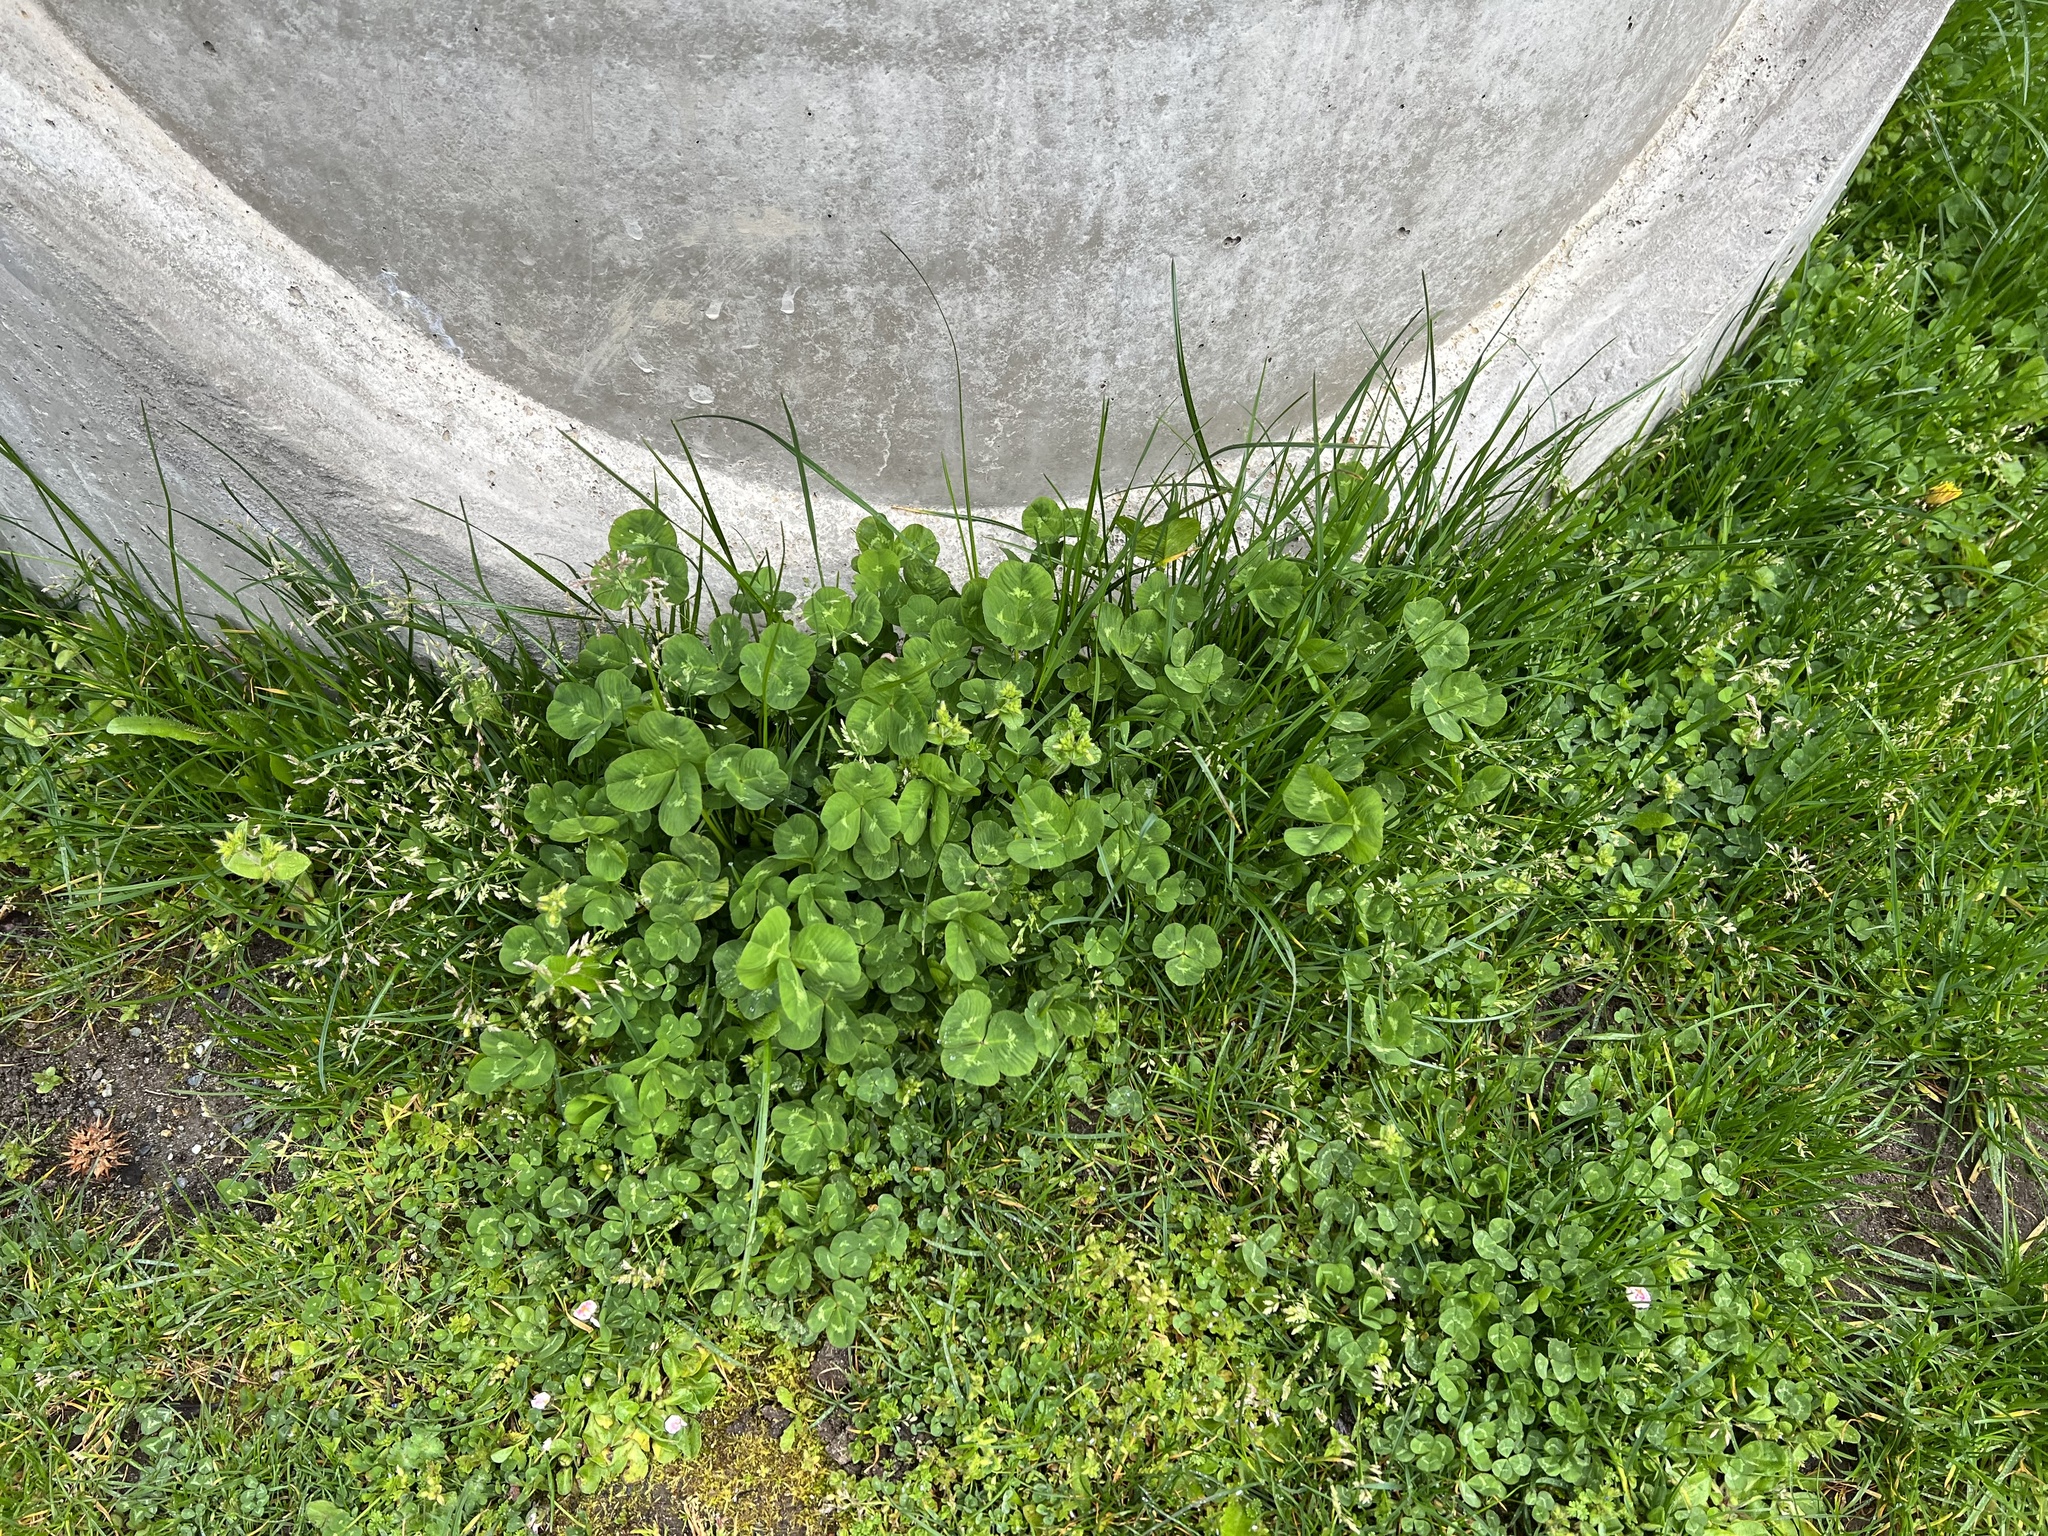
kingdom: Plantae
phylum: Tracheophyta
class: Magnoliopsida
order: Fabales
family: Fabaceae
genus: Trifolium
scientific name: Trifolium repens
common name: White clover
